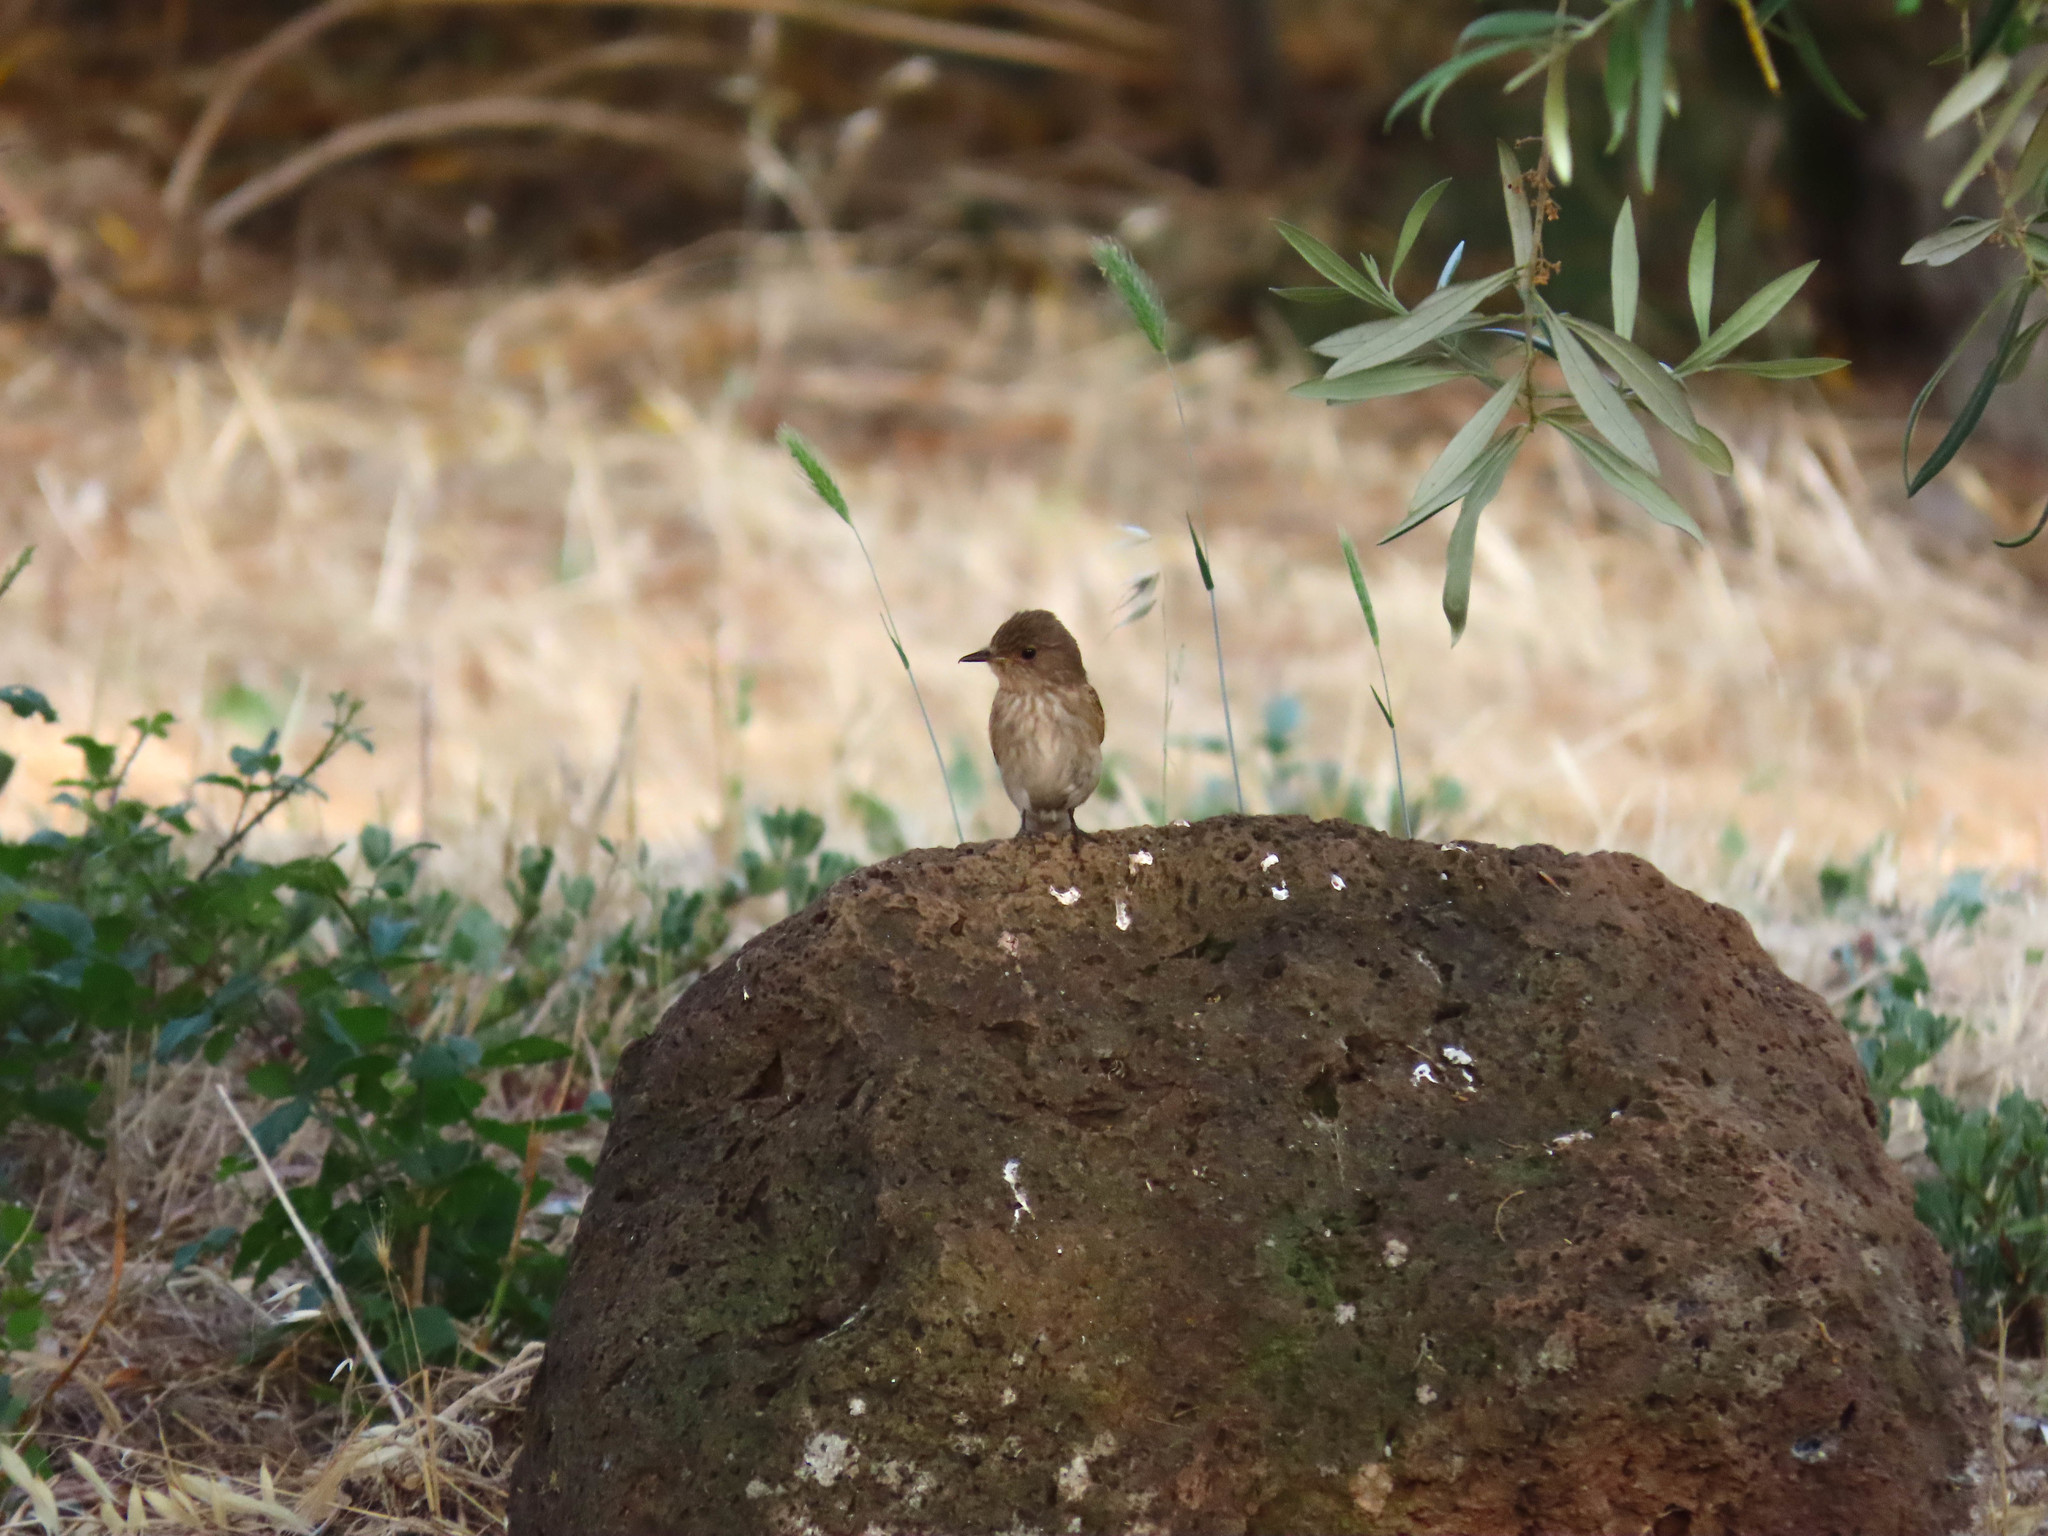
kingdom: Animalia
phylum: Chordata
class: Aves
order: Passeriformes
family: Muscicapidae
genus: Muscicapa
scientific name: Muscicapa striata
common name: Spotted flycatcher
